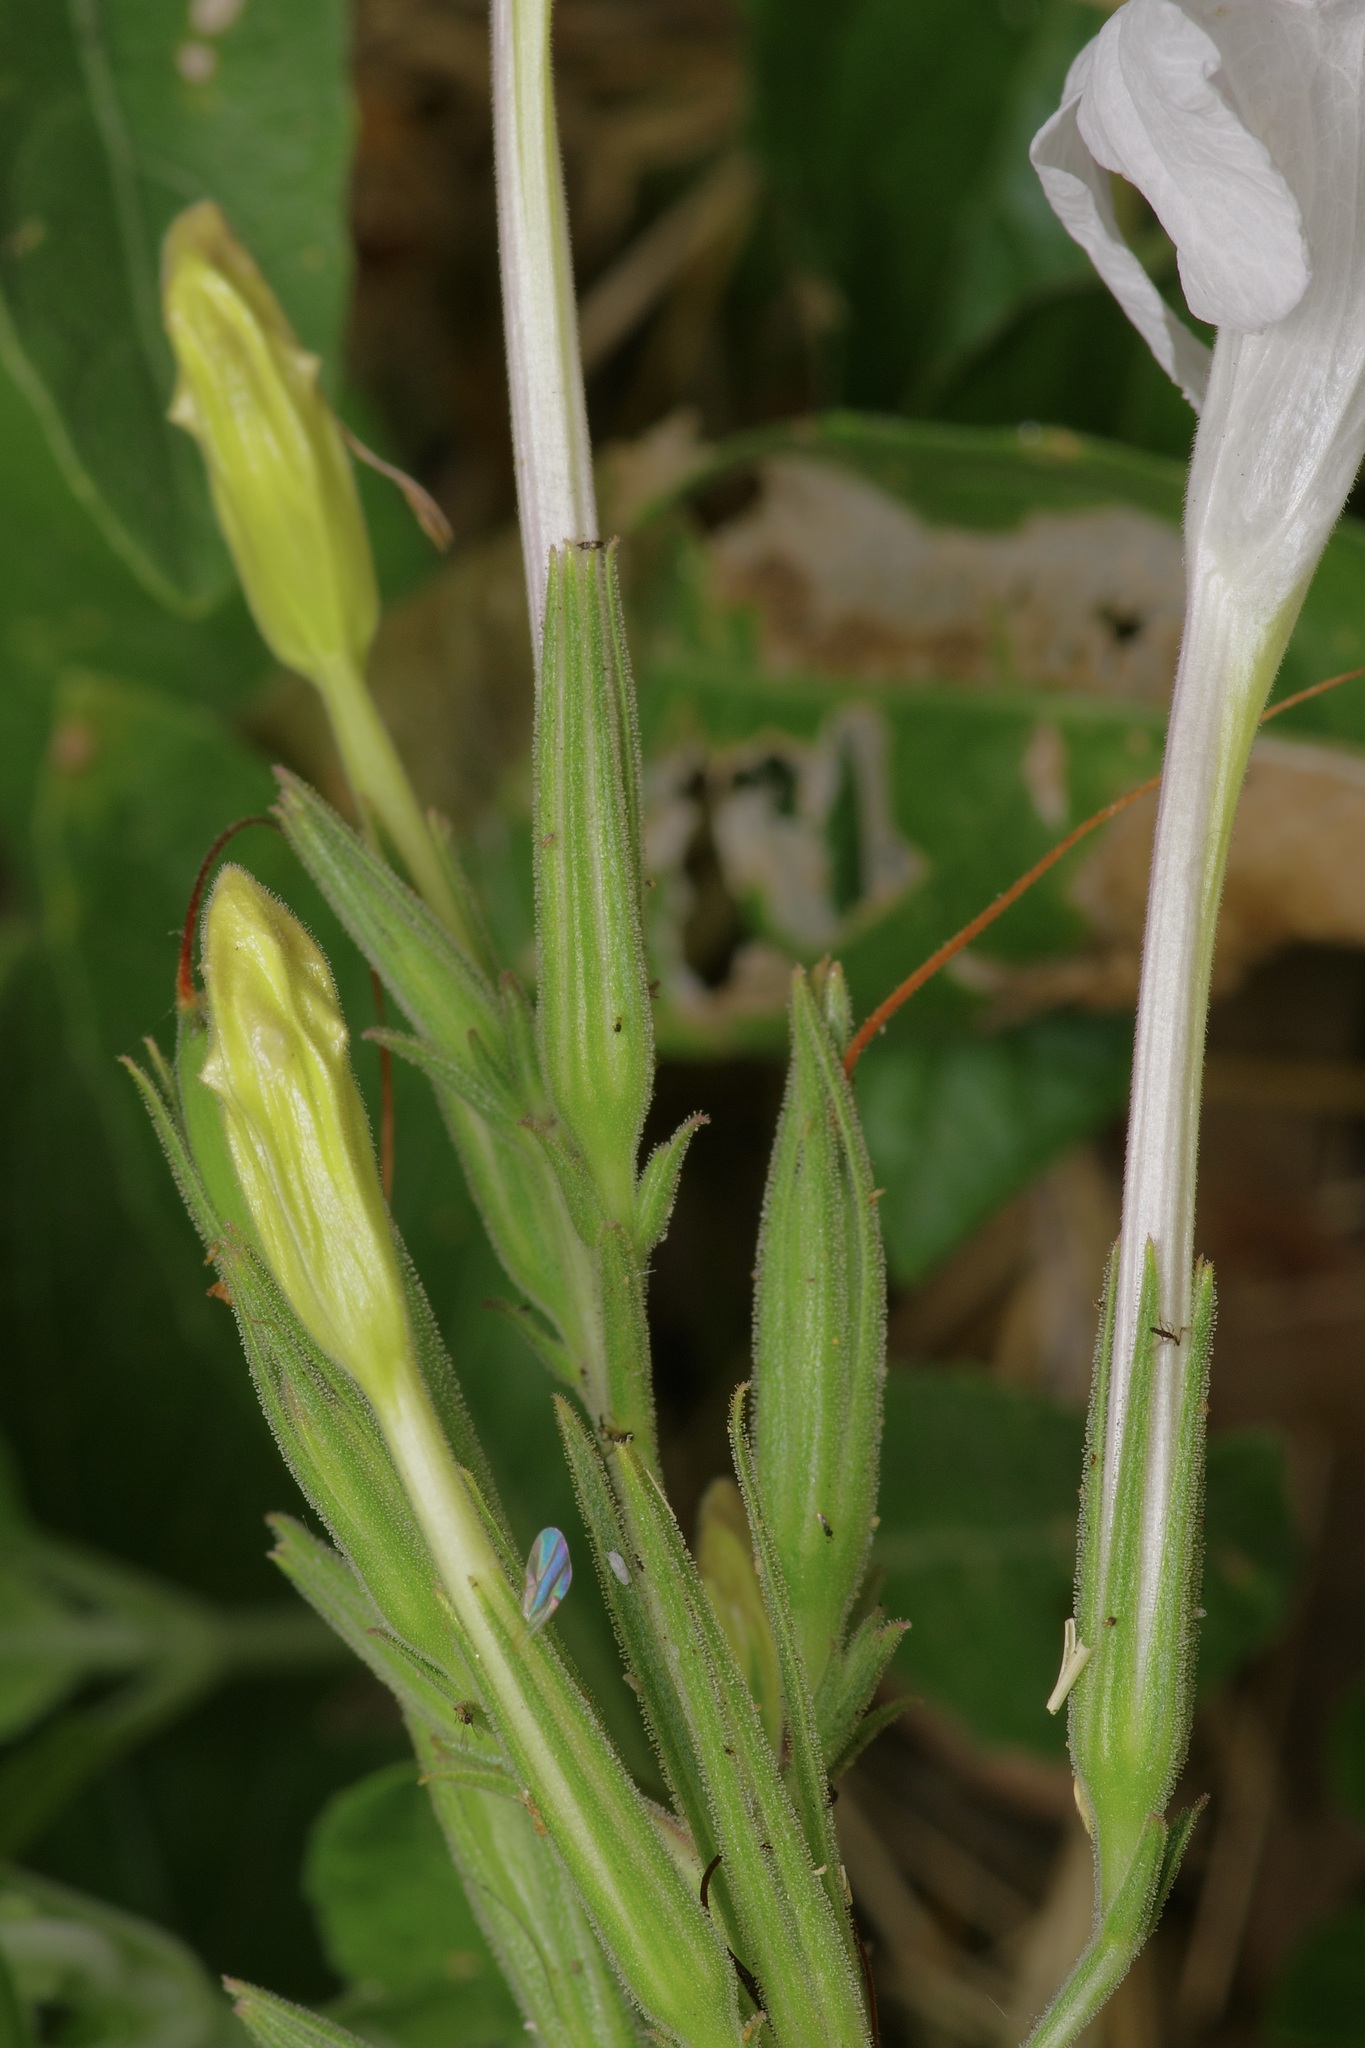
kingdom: Plantae
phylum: Tracheophyta
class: Magnoliopsida
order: Lamiales
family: Acanthaceae
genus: Ruellia
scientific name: Ruellia metziae
